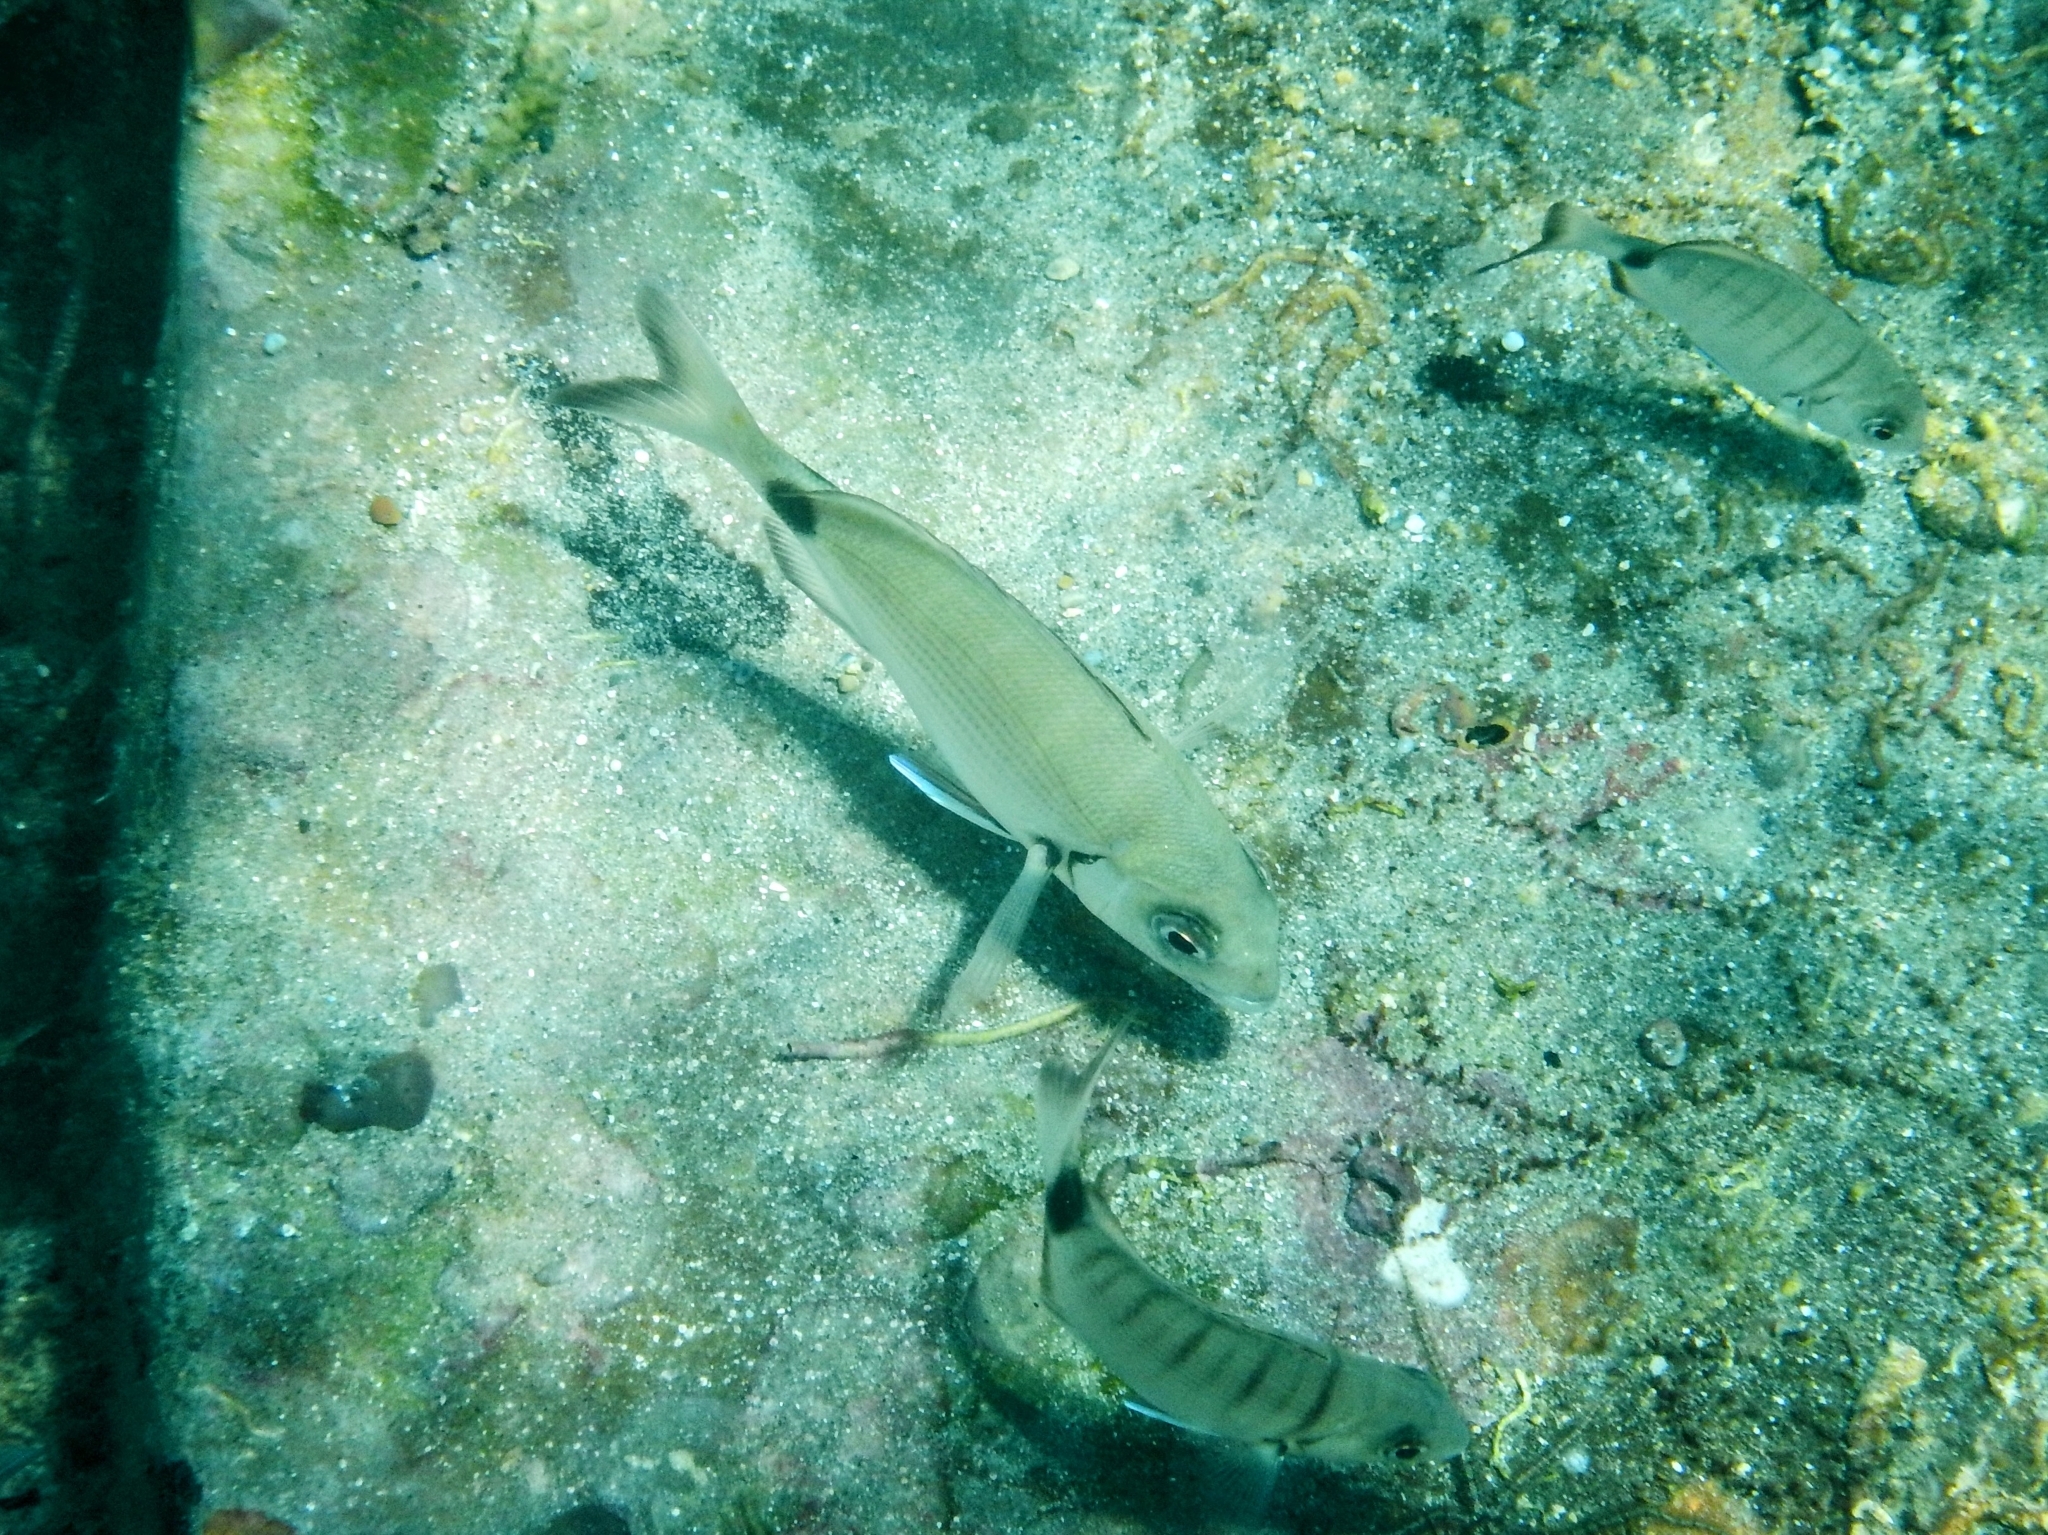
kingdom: Animalia
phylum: Chordata
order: Perciformes
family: Sparidae
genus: Diplodus
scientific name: Diplodus sargus
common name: White seabream
